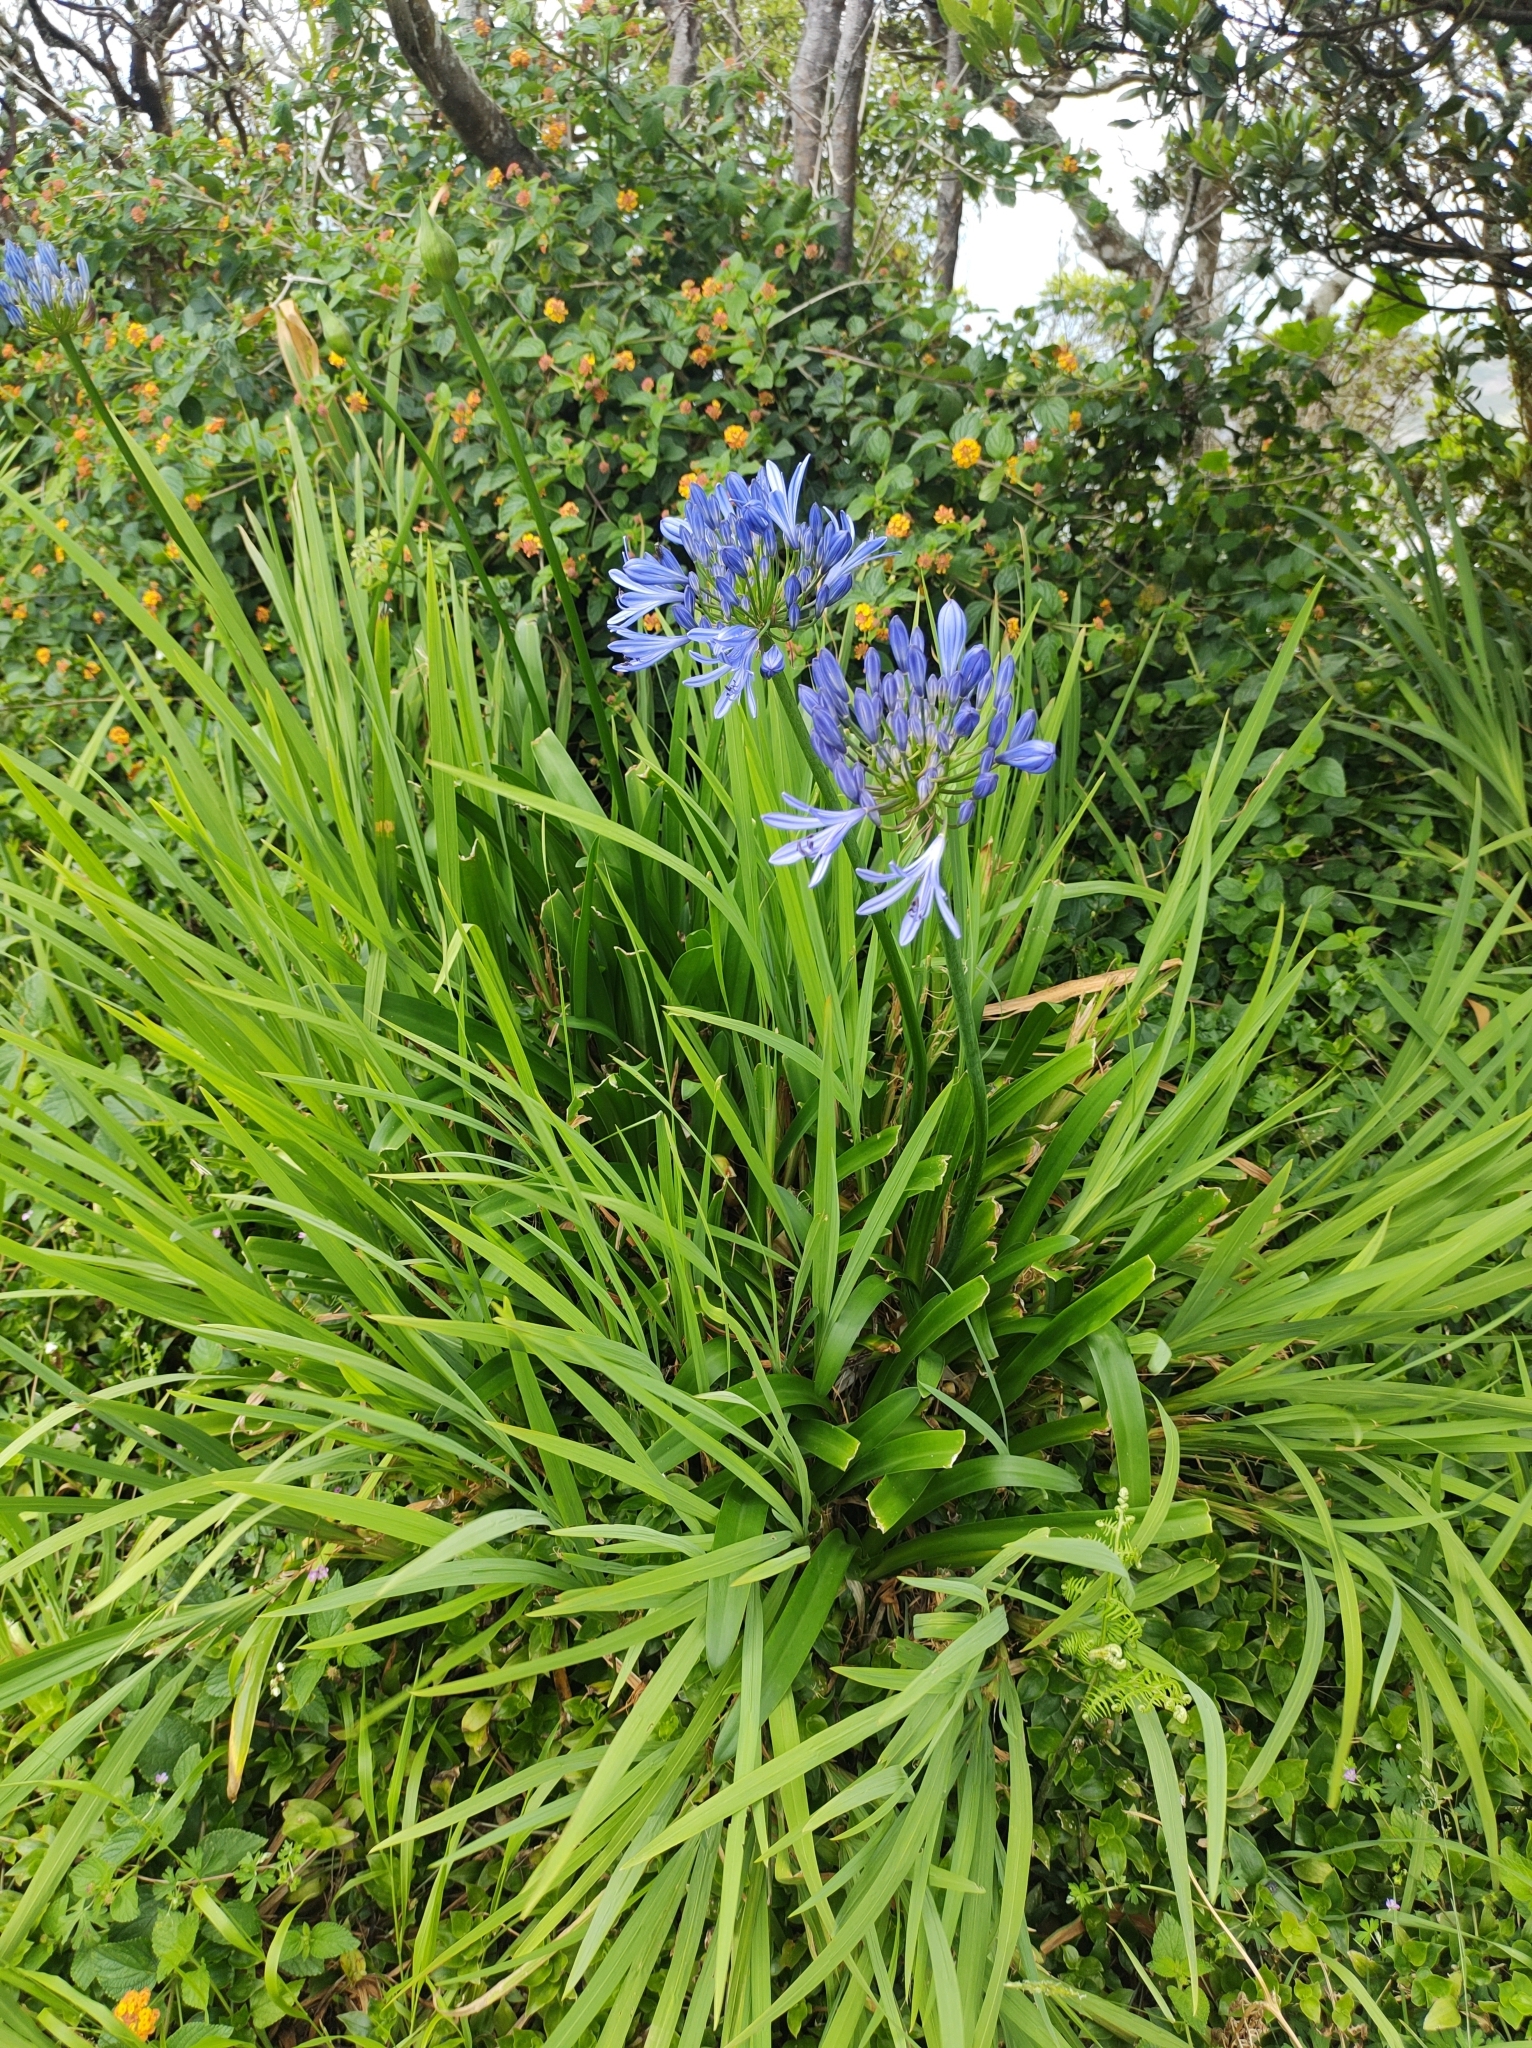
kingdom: Plantae
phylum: Tracheophyta
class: Liliopsida
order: Asparagales
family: Amaryllidaceae
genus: Agapanthus
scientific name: Agapanthus praecox
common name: African-lily
